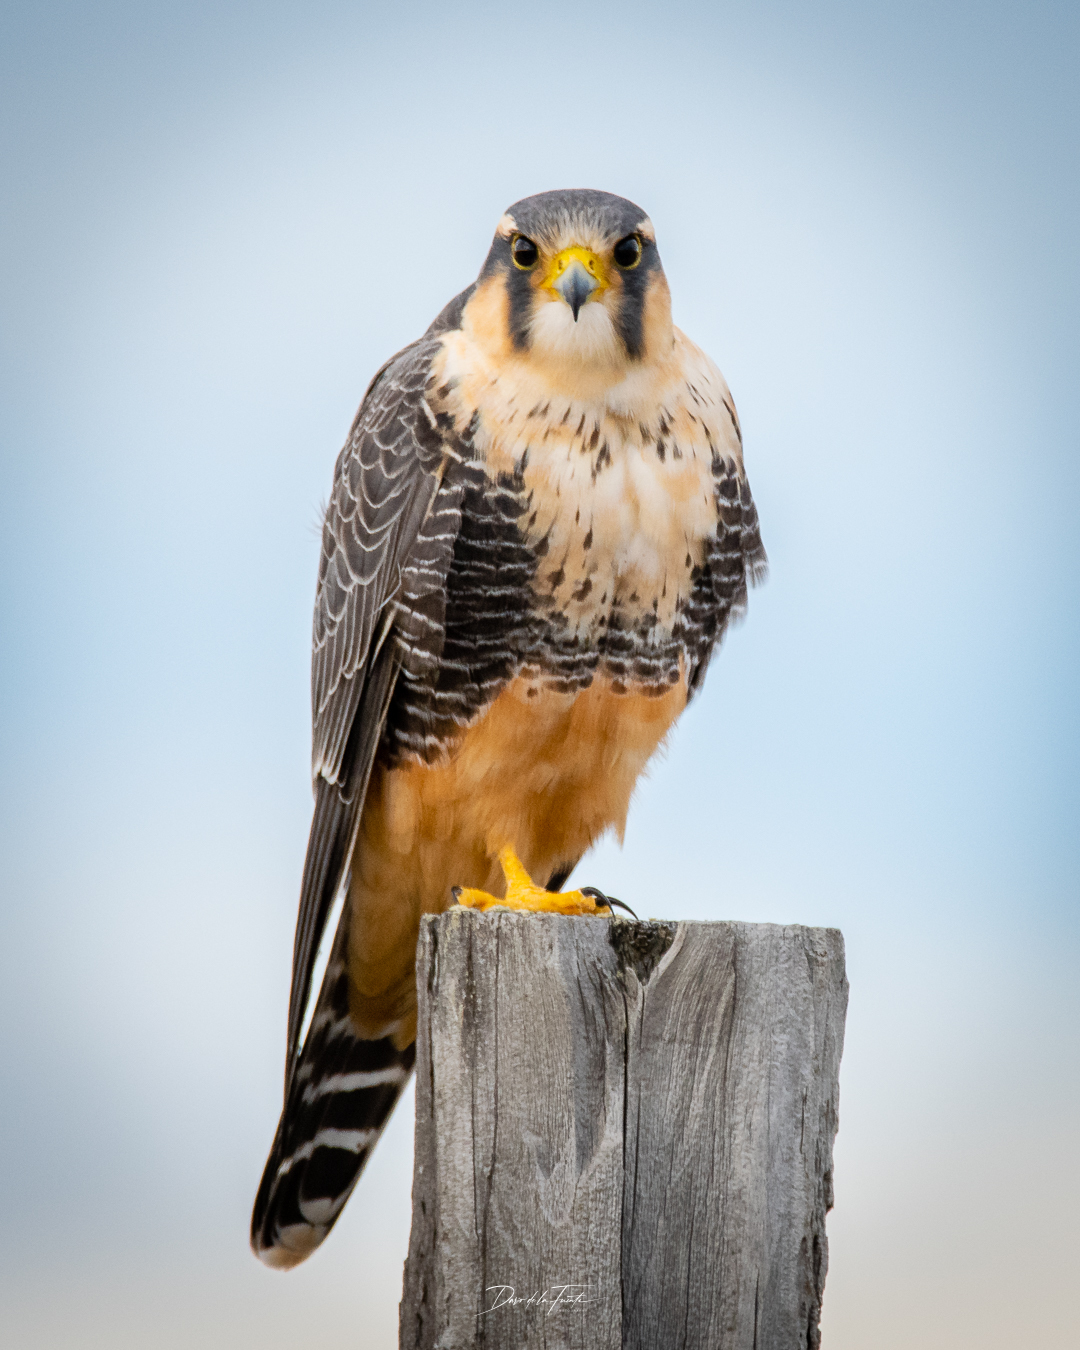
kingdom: Animalia
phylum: Chordata
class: Aves
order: Falconiformes
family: Falconidae
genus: Falco
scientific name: Falco femoralis
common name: Aplomado falcon
